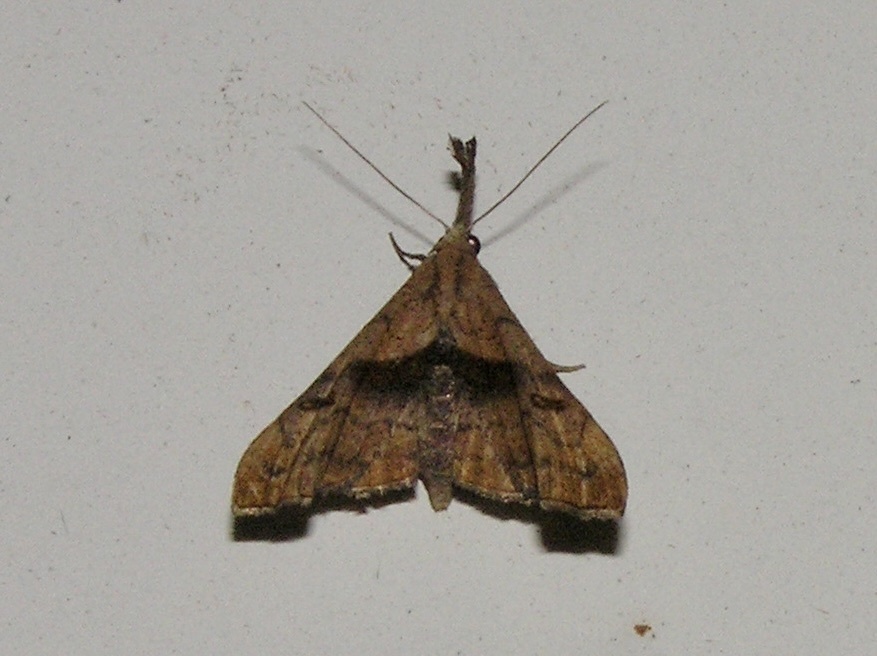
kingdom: Animalia
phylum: Arthropoda
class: Insecta
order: Lepidoptera
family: Erebidae
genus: Palthis
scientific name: Palthis angulalis
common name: Dark-spotted palthis moth
